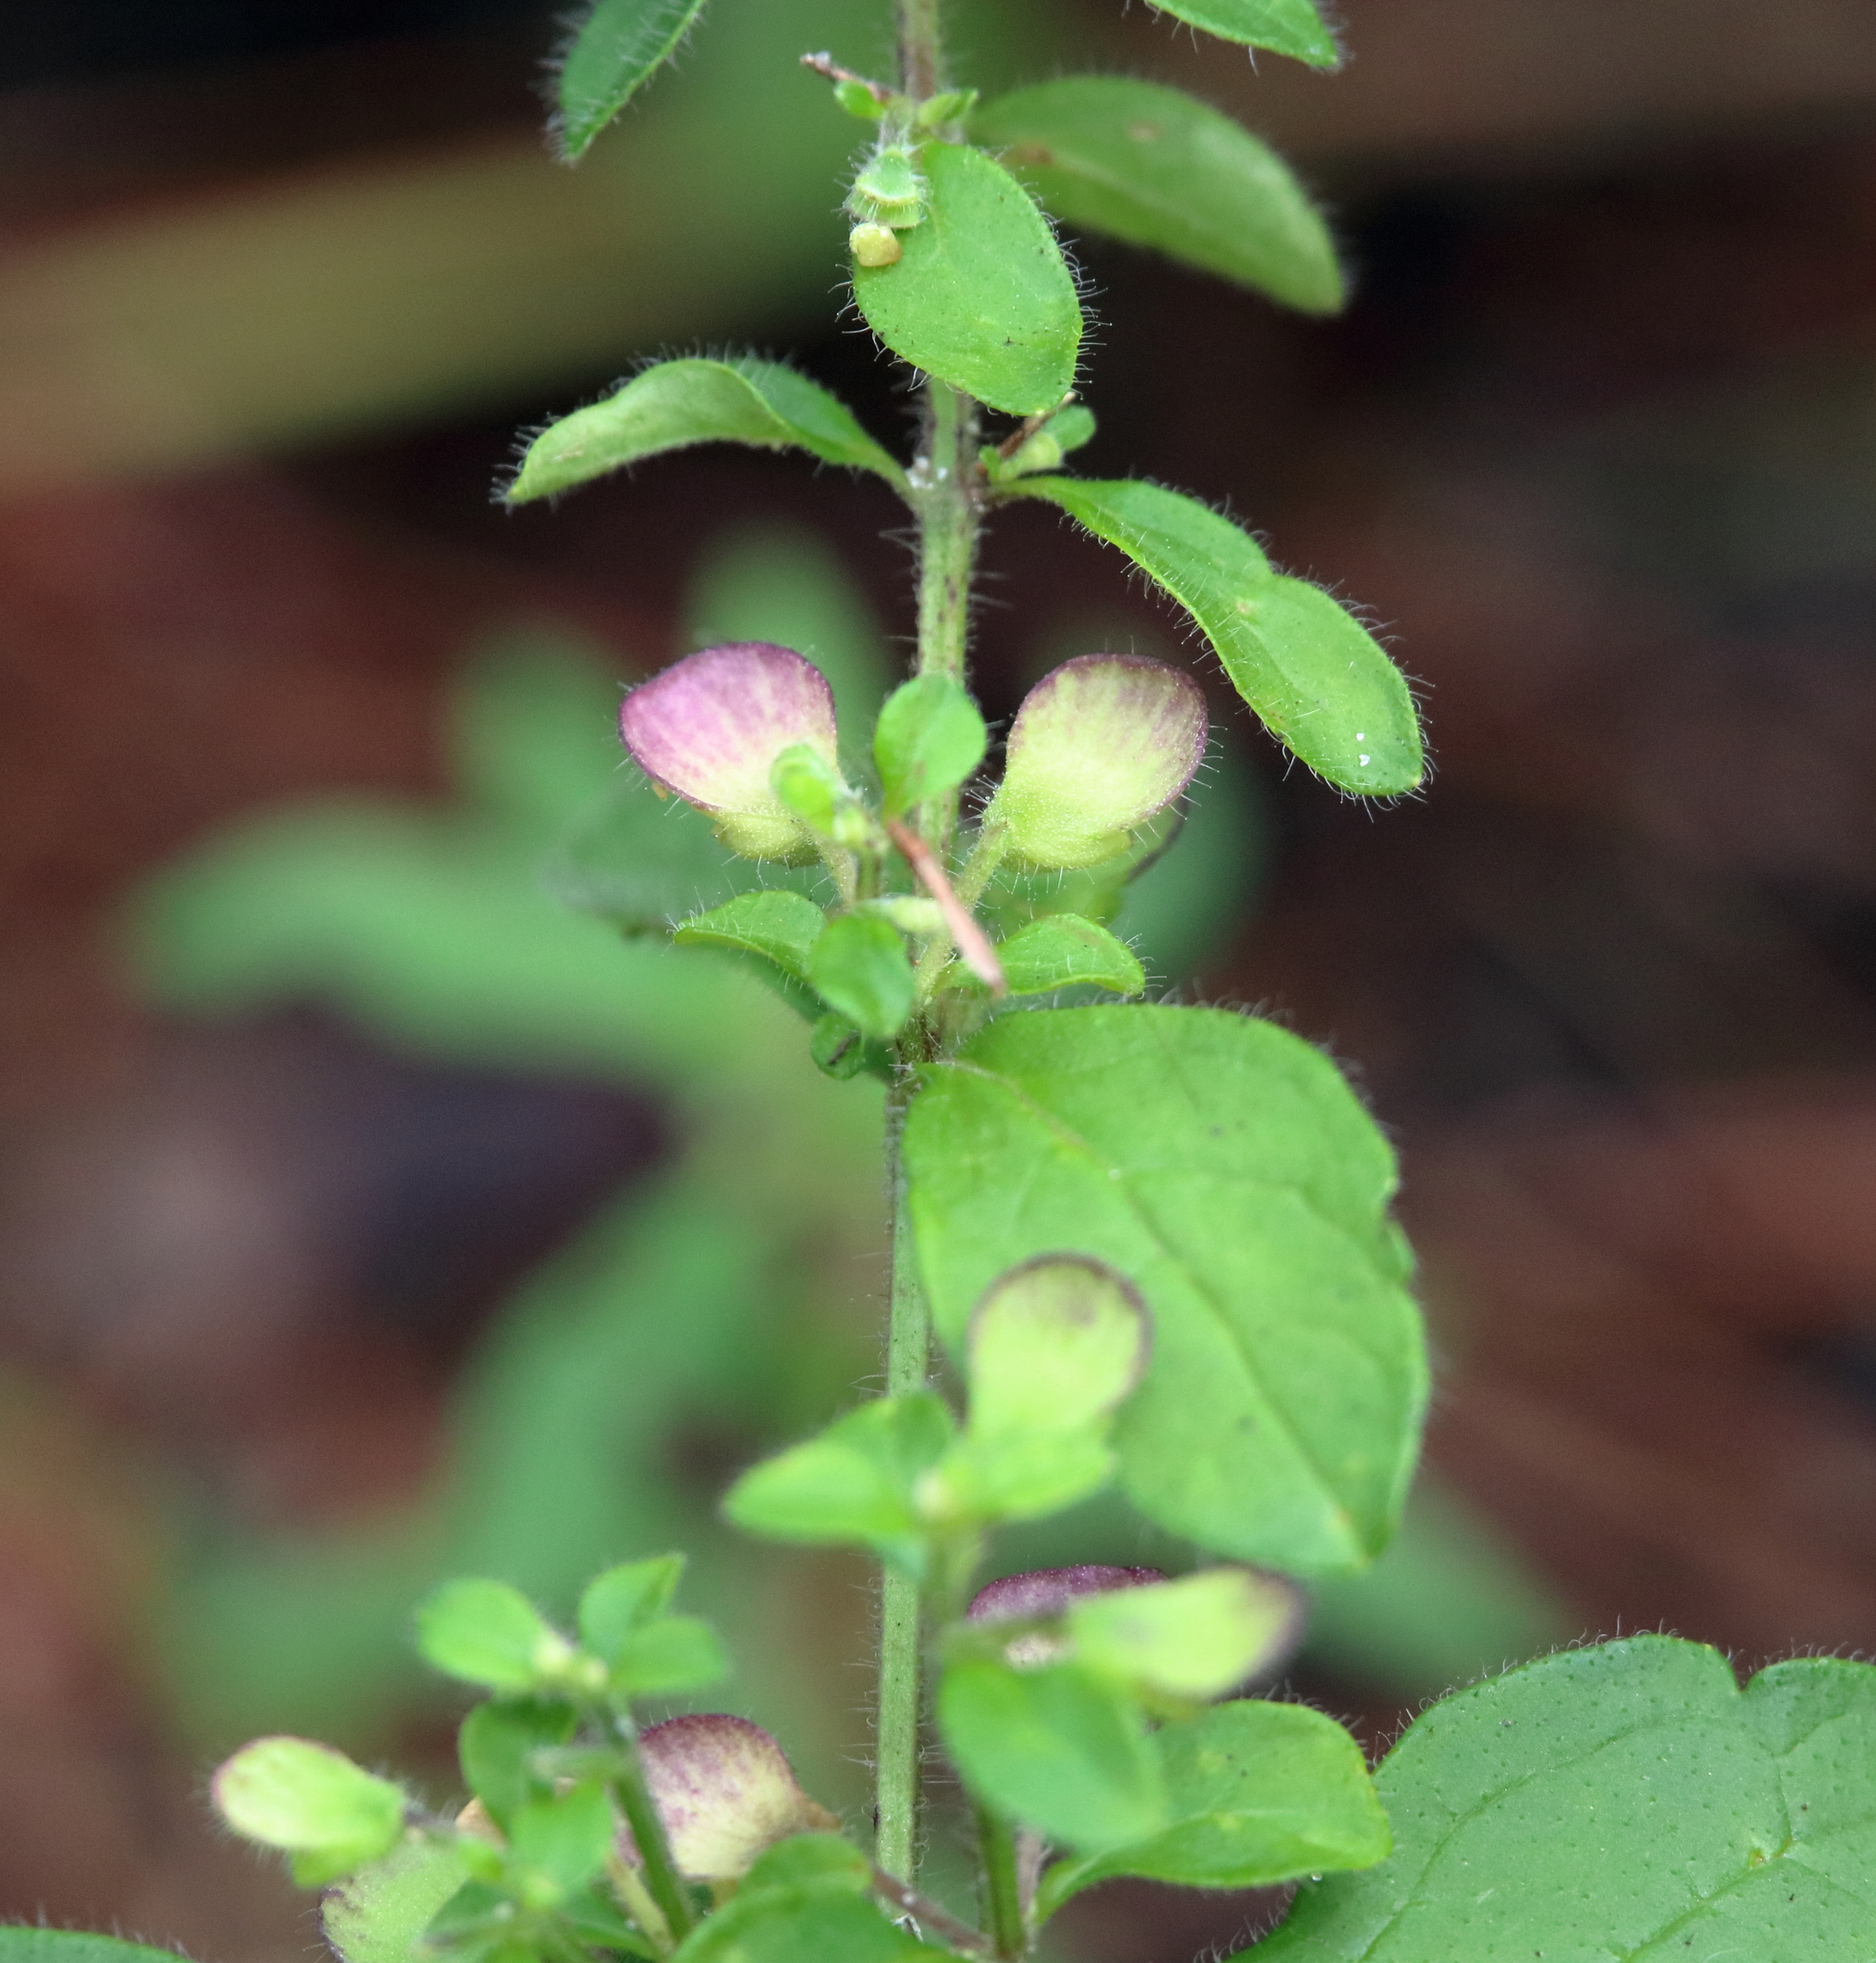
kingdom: Plantae
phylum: Tracheophyta
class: Magnoliopsida
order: Lamiales
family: Lamiaceae
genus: Scutellaria
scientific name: Scutellaria elliptica
